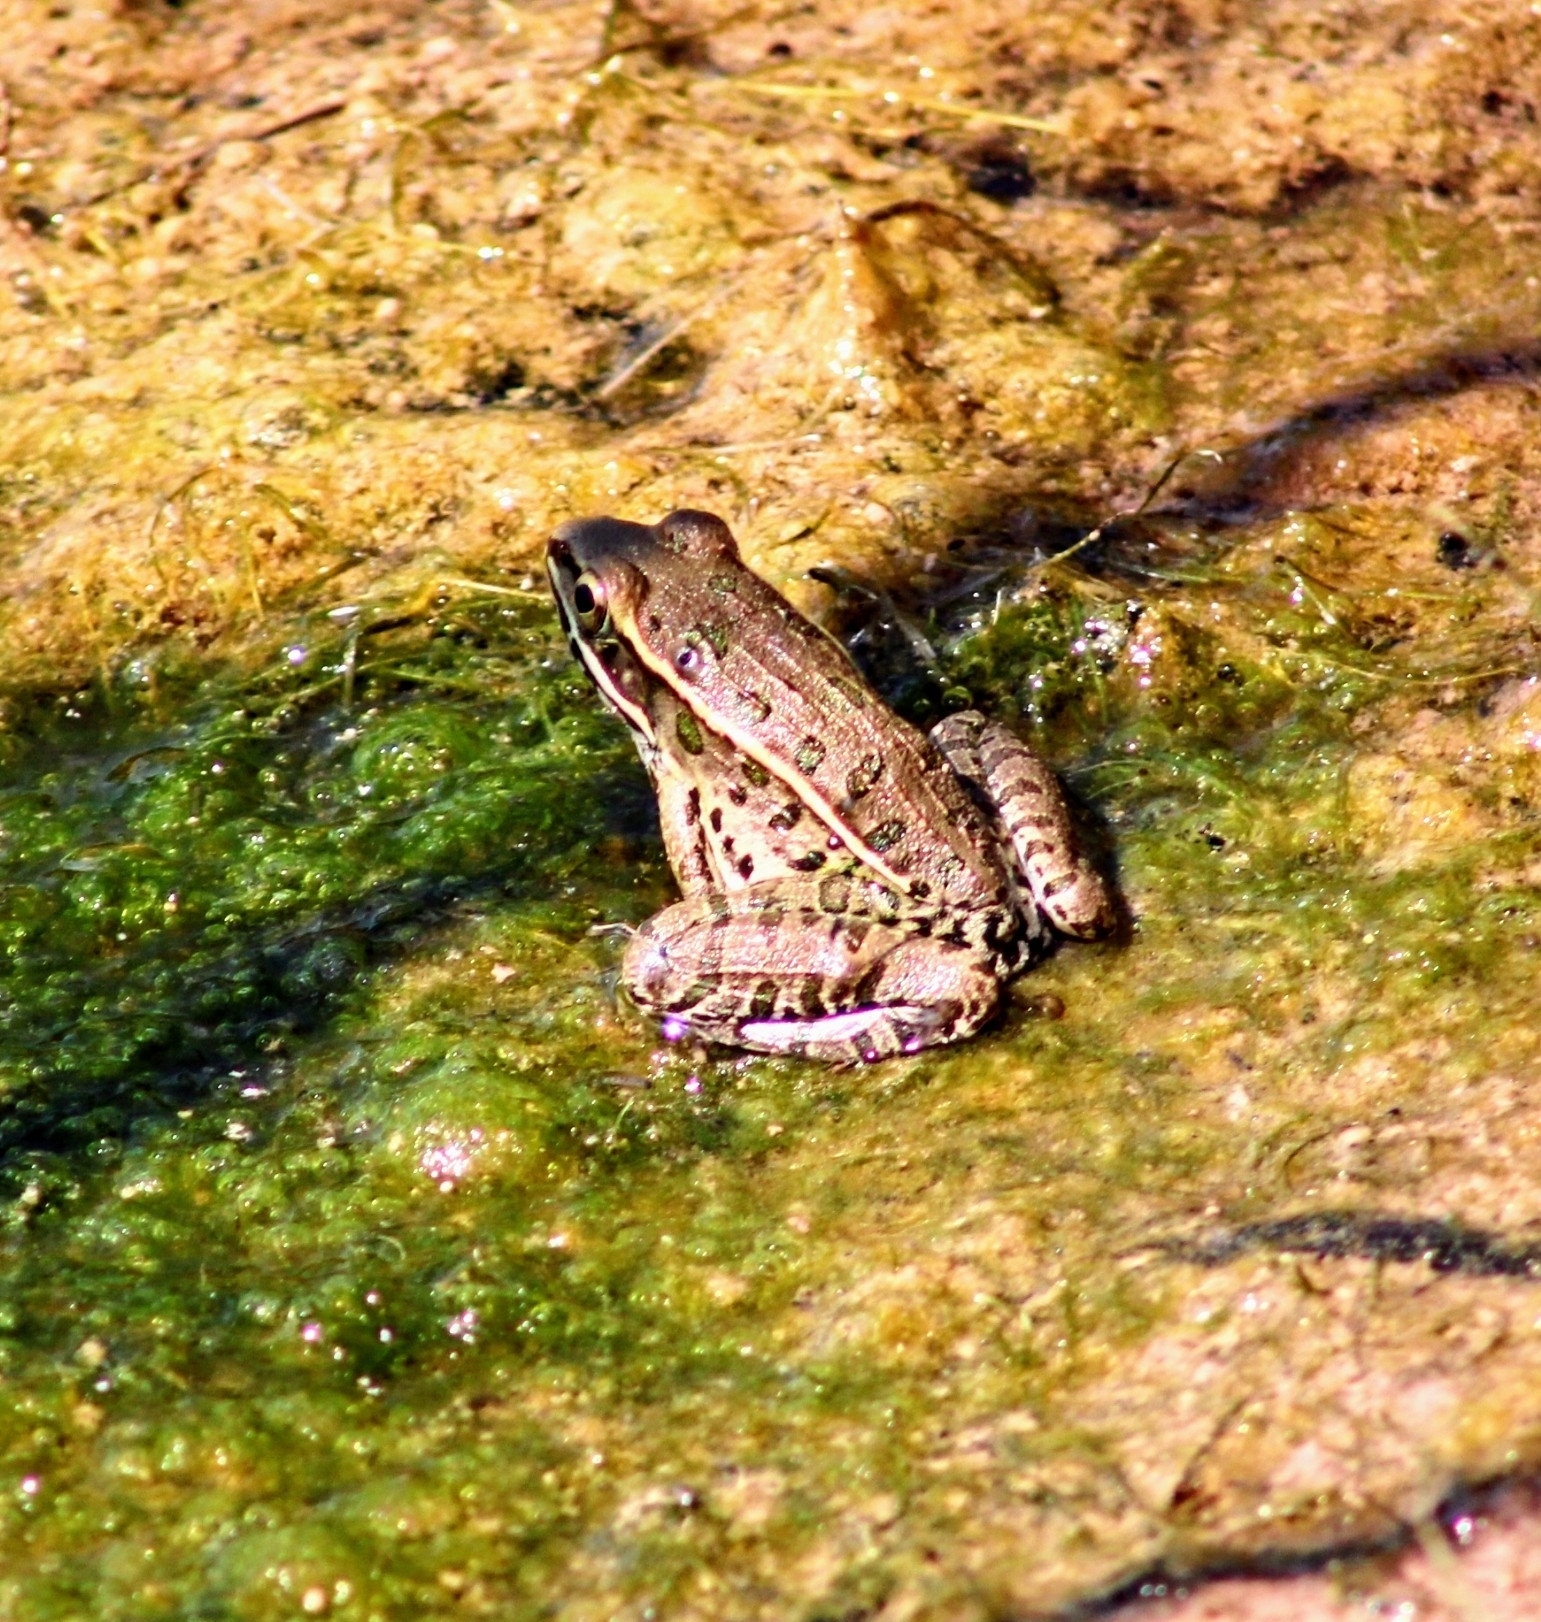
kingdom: Animalia
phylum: Chordata
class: Amphibia
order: Anura
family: Ranidae
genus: Lithobates
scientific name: Lithobates sphenocephalus
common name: Southern leopard frog
